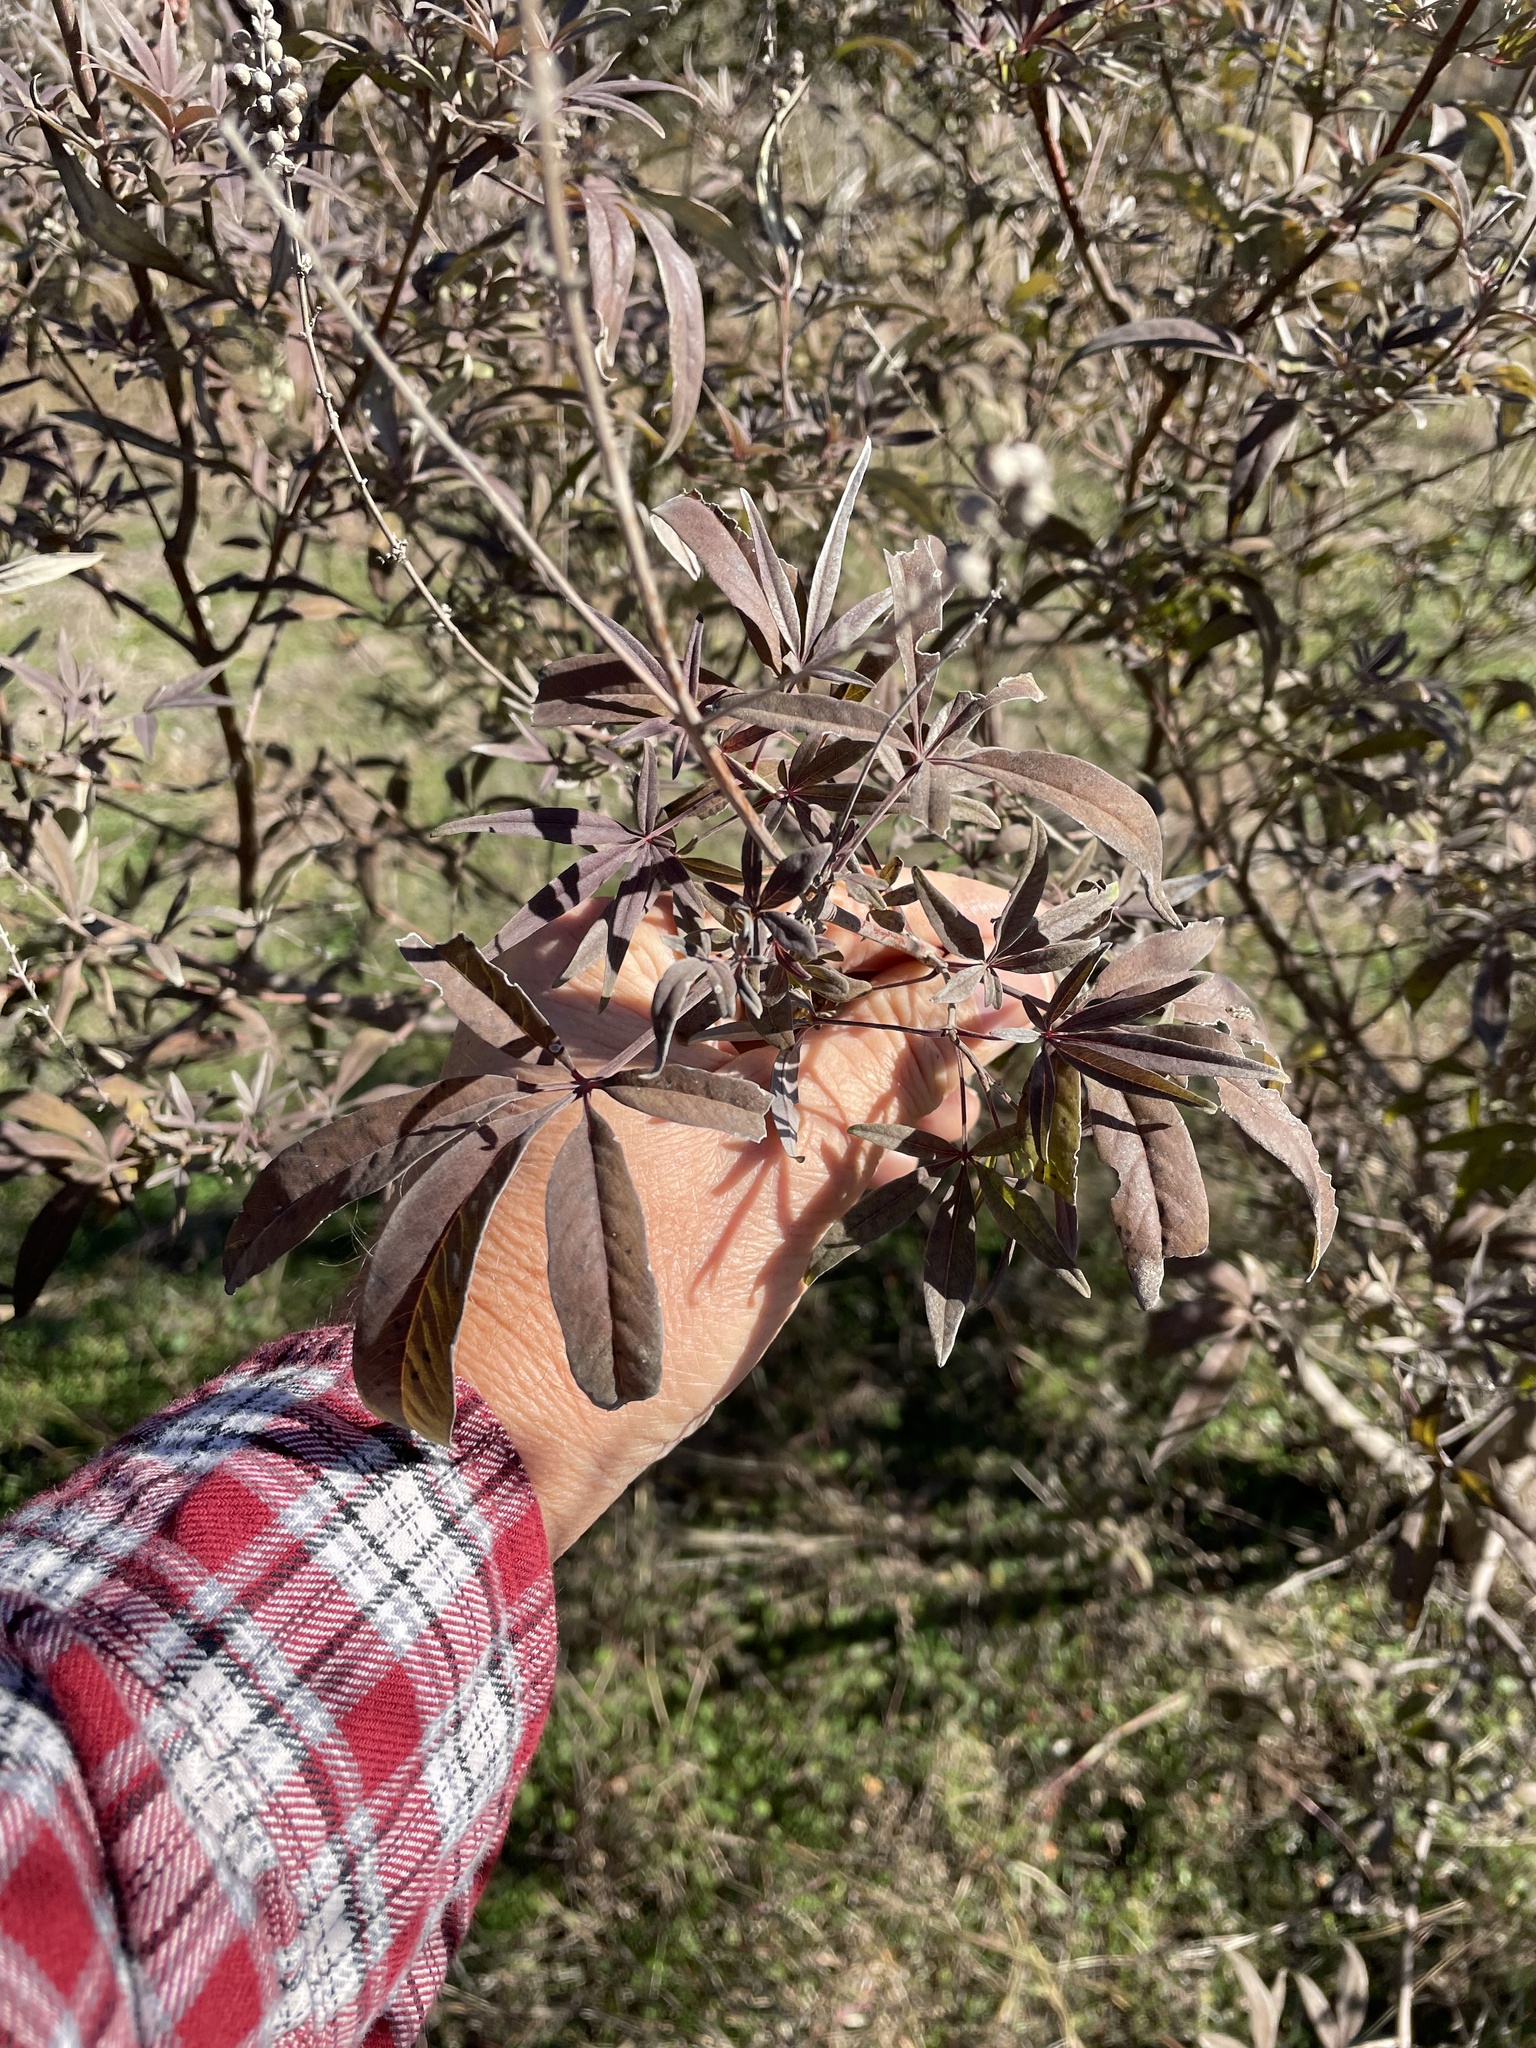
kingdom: Plantae
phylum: Tracheophyta
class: Magnoliopsida
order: Lamiales
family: Lamiaceae
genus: Vitex
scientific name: Vitex agnus-castus
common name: Chasteberry
